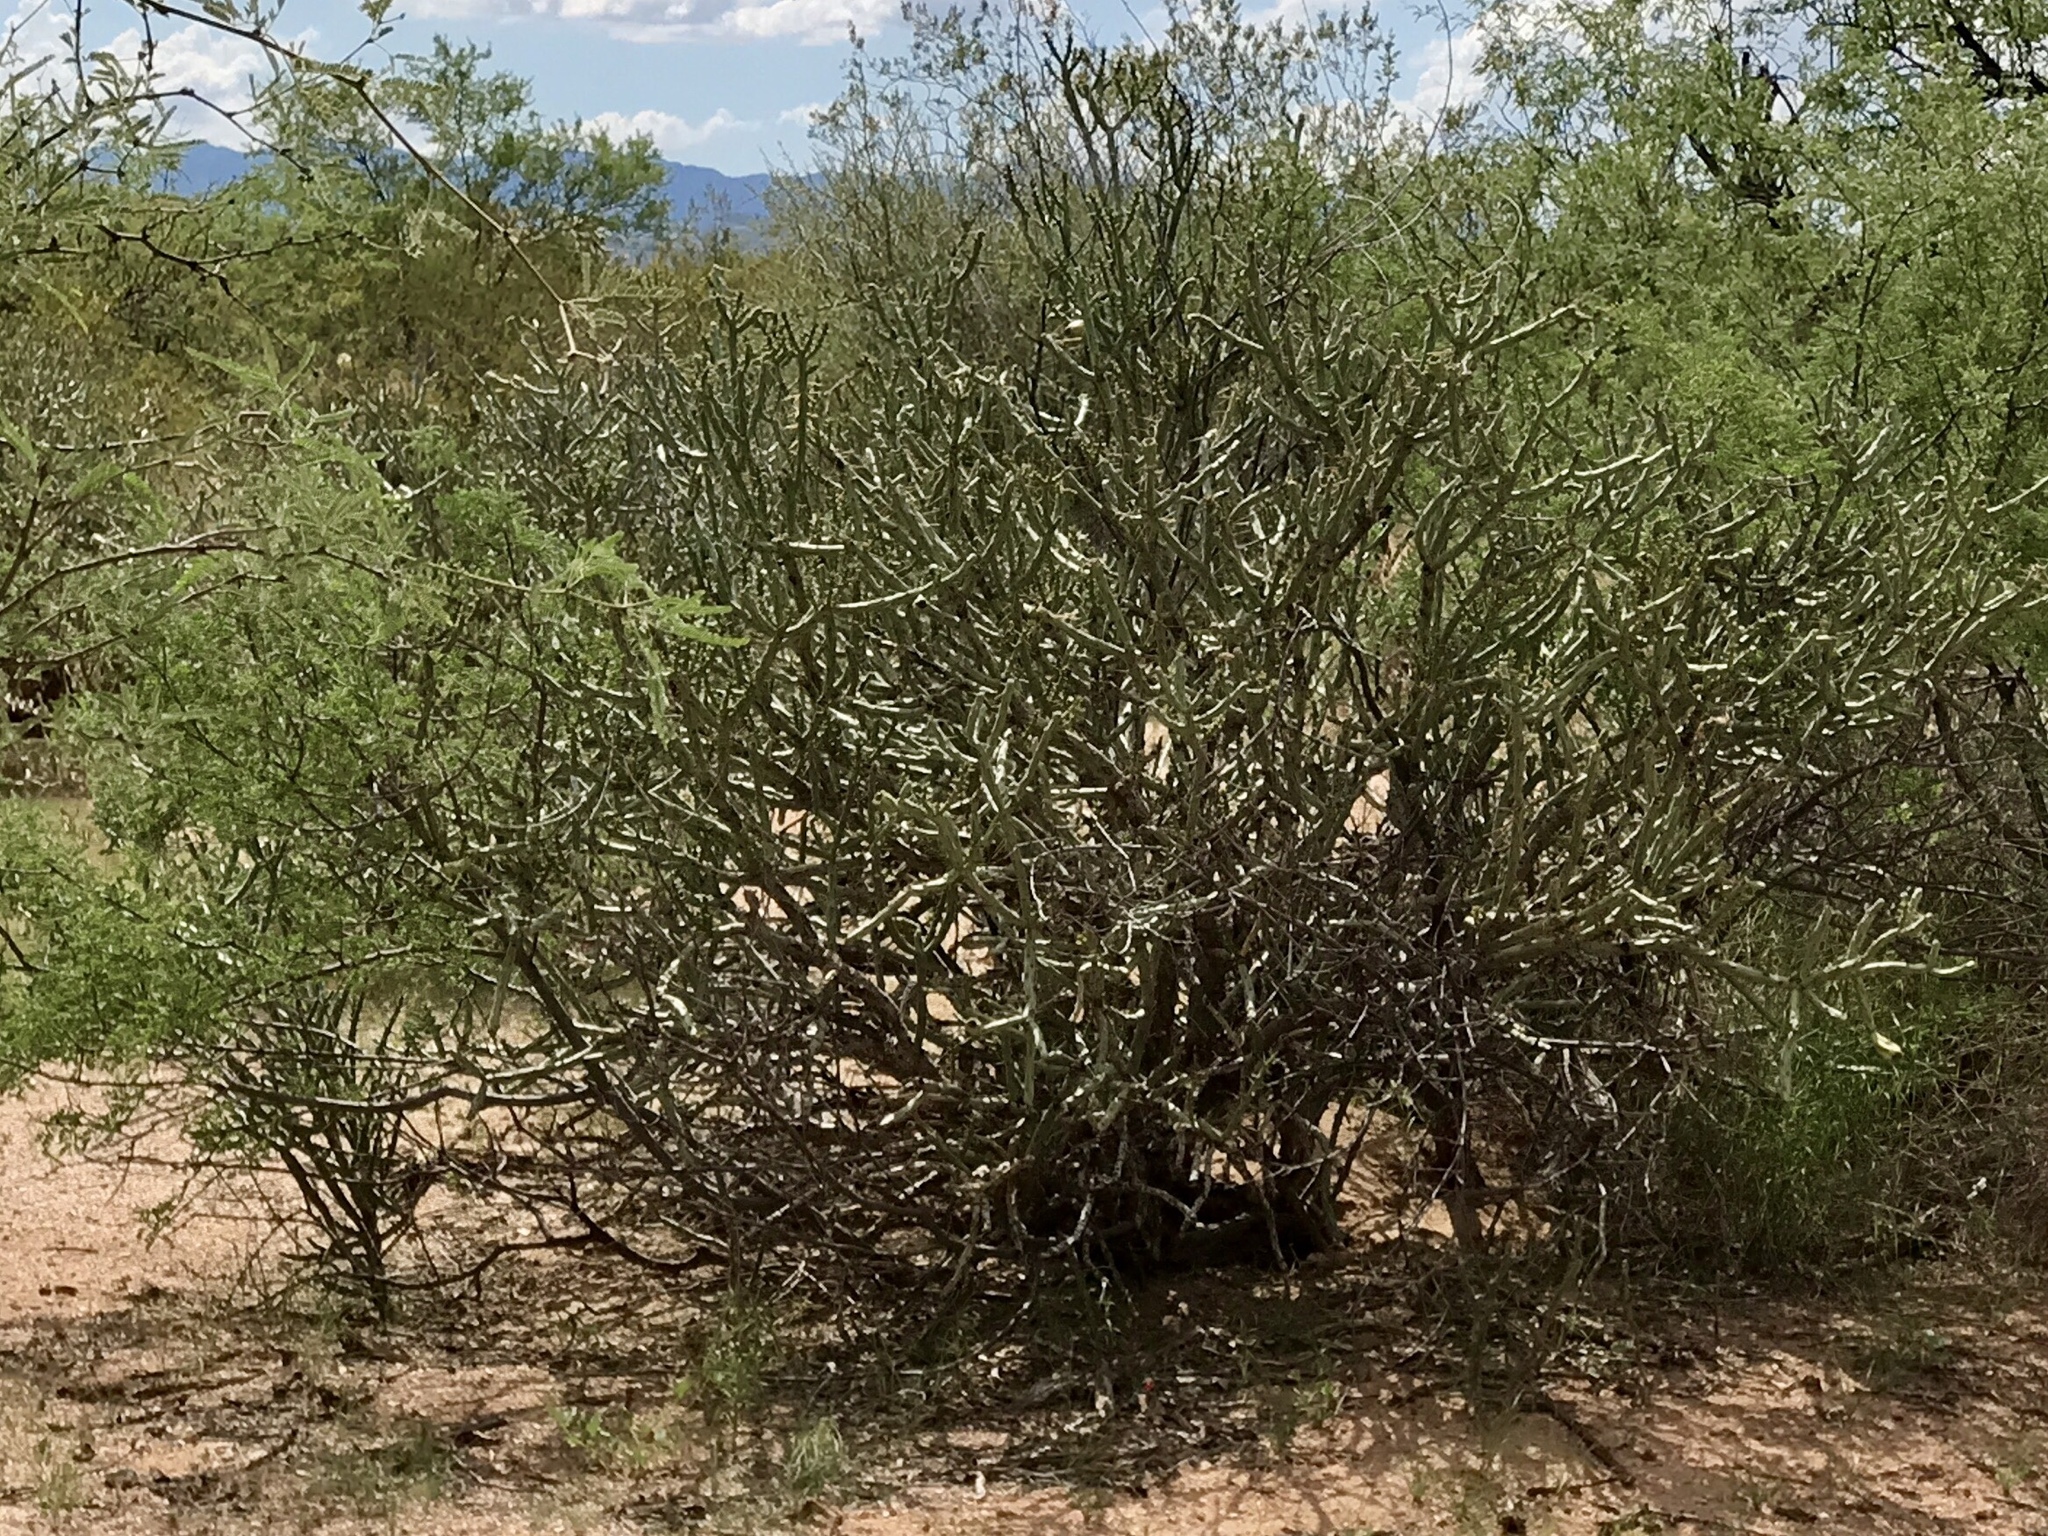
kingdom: Plantae
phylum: Tracheophyta
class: Magnoliopsida
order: Caryophyllales
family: Cactaceae
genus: Cylindropuntia
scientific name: Cylindropuntia arbuscula
